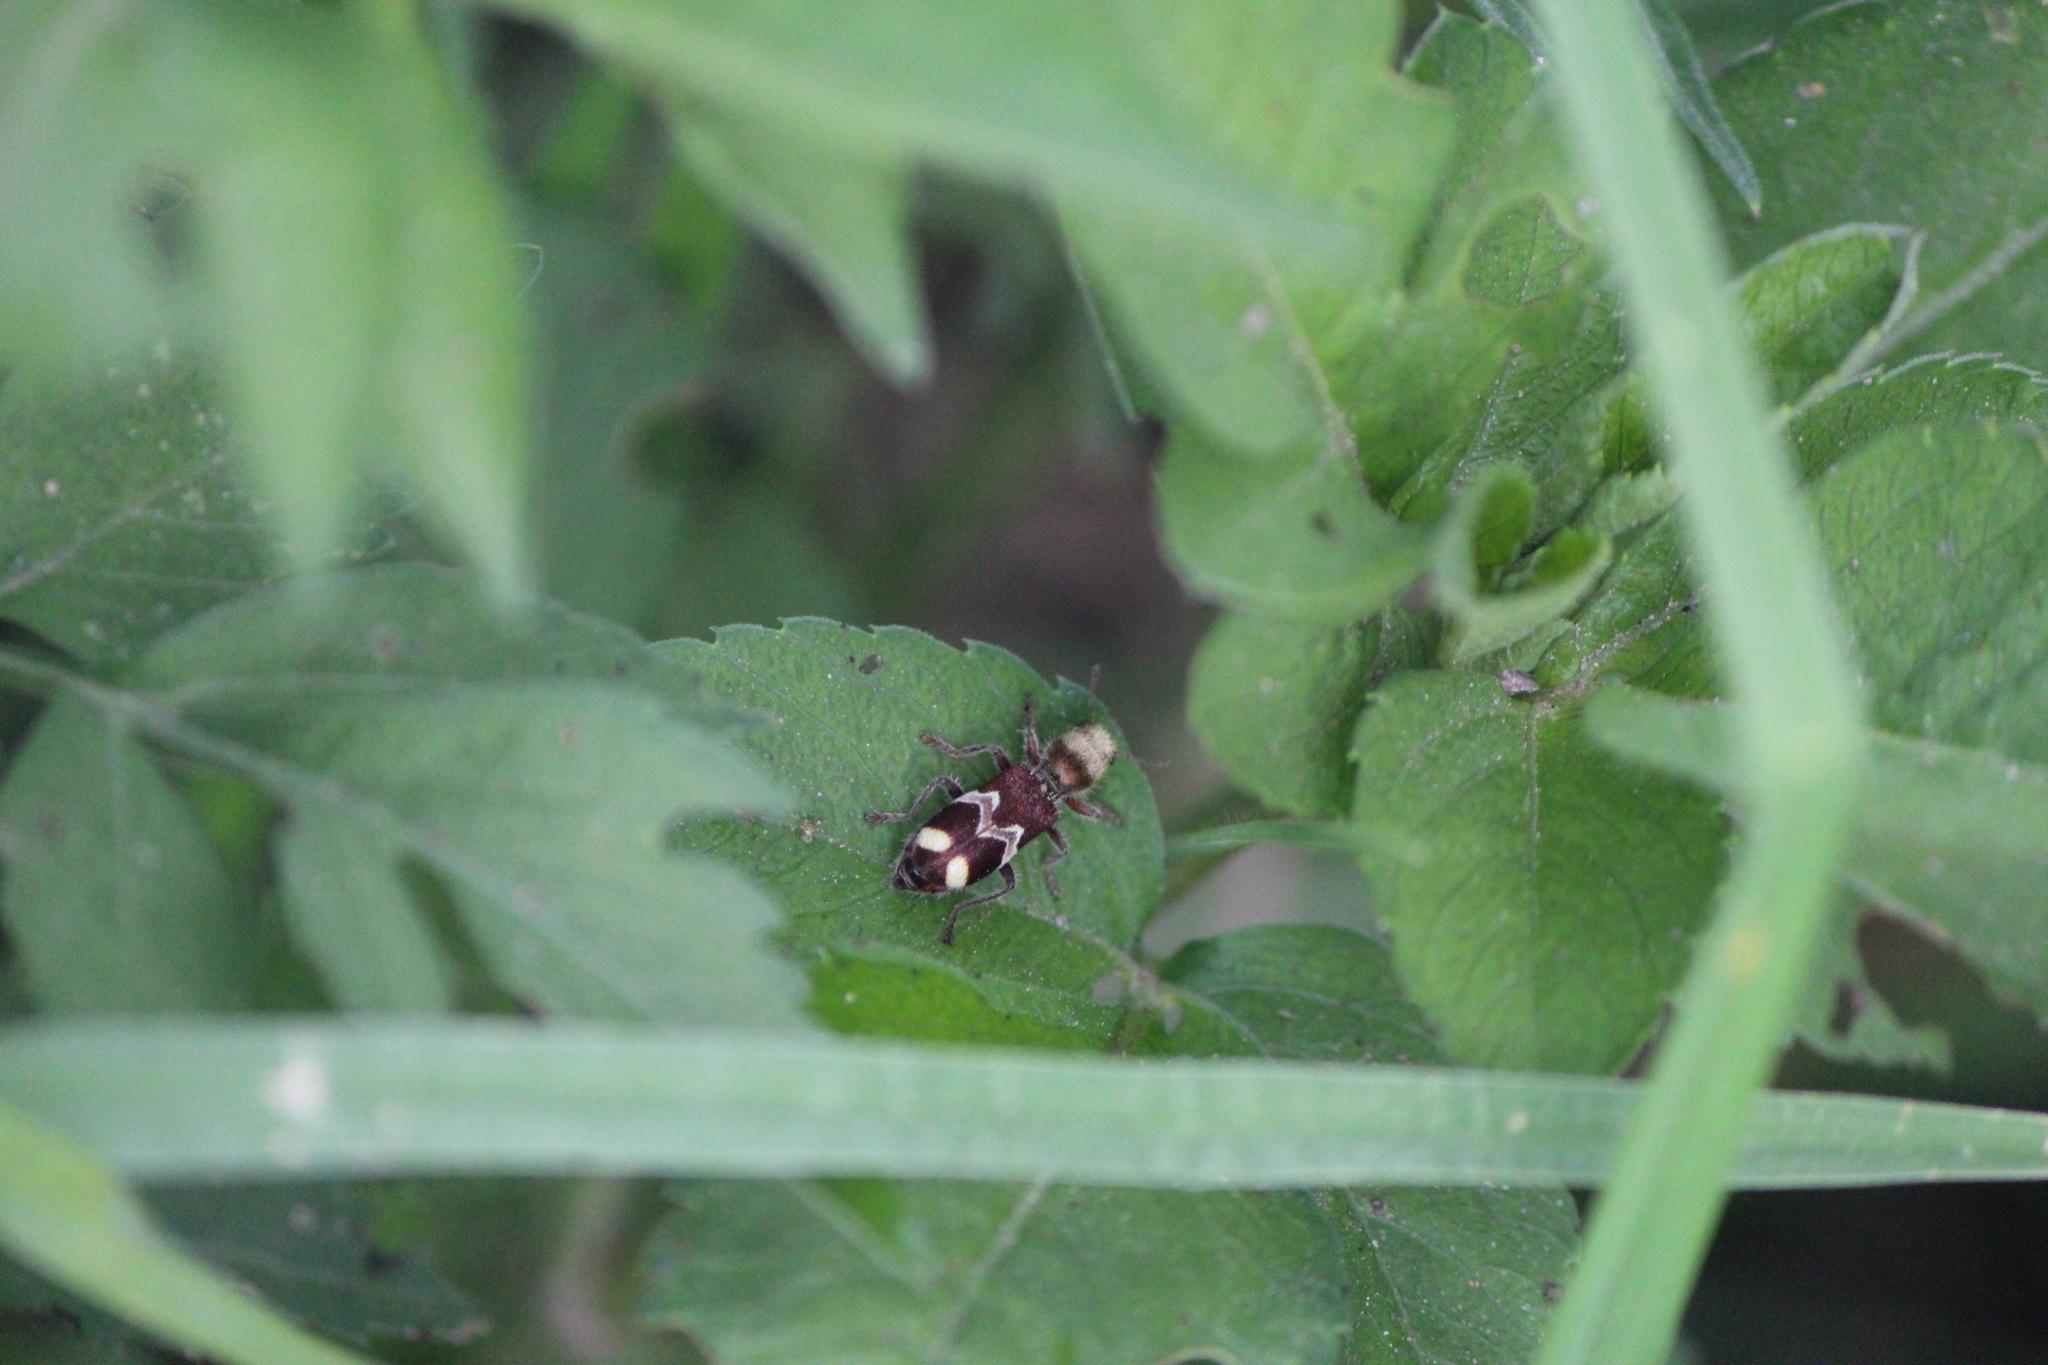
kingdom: Animalia
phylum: Arthropoda
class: Insecta
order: Coleoptera
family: Cleridae
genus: Enoclerus
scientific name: Enoclerus bombycinus
